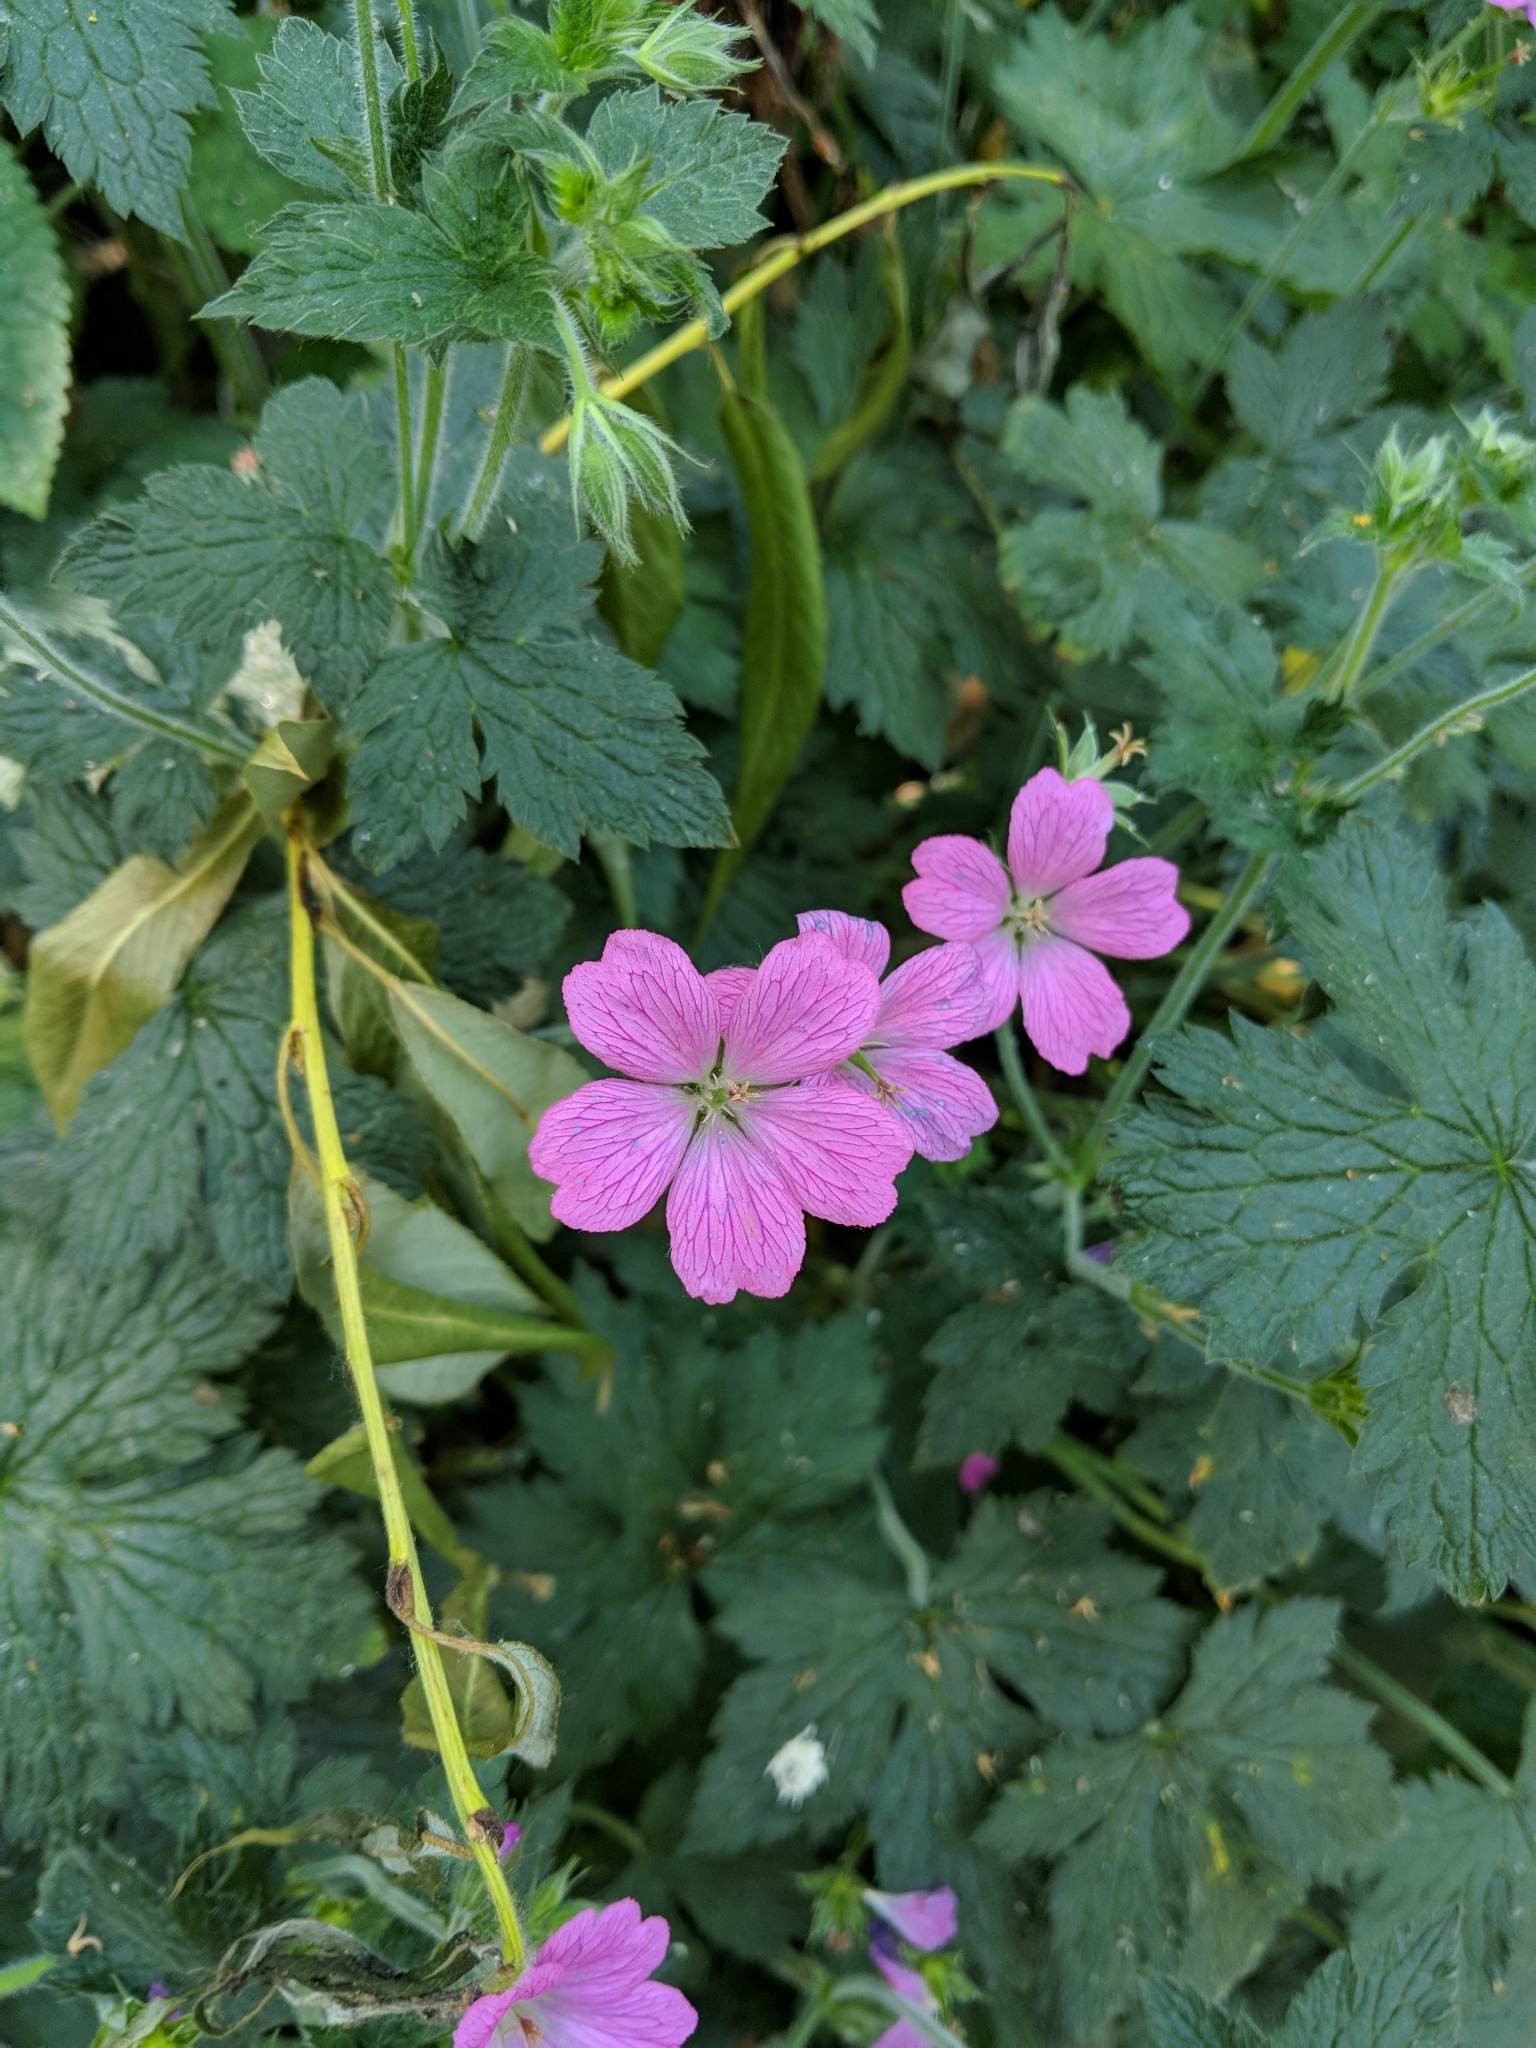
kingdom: Plantae
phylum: Tracheophyta
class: Magnoliopsida
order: Geraniales
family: Geraniaceae
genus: Geranium
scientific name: Geranium oxonianum
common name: Druce's crane's-bill
